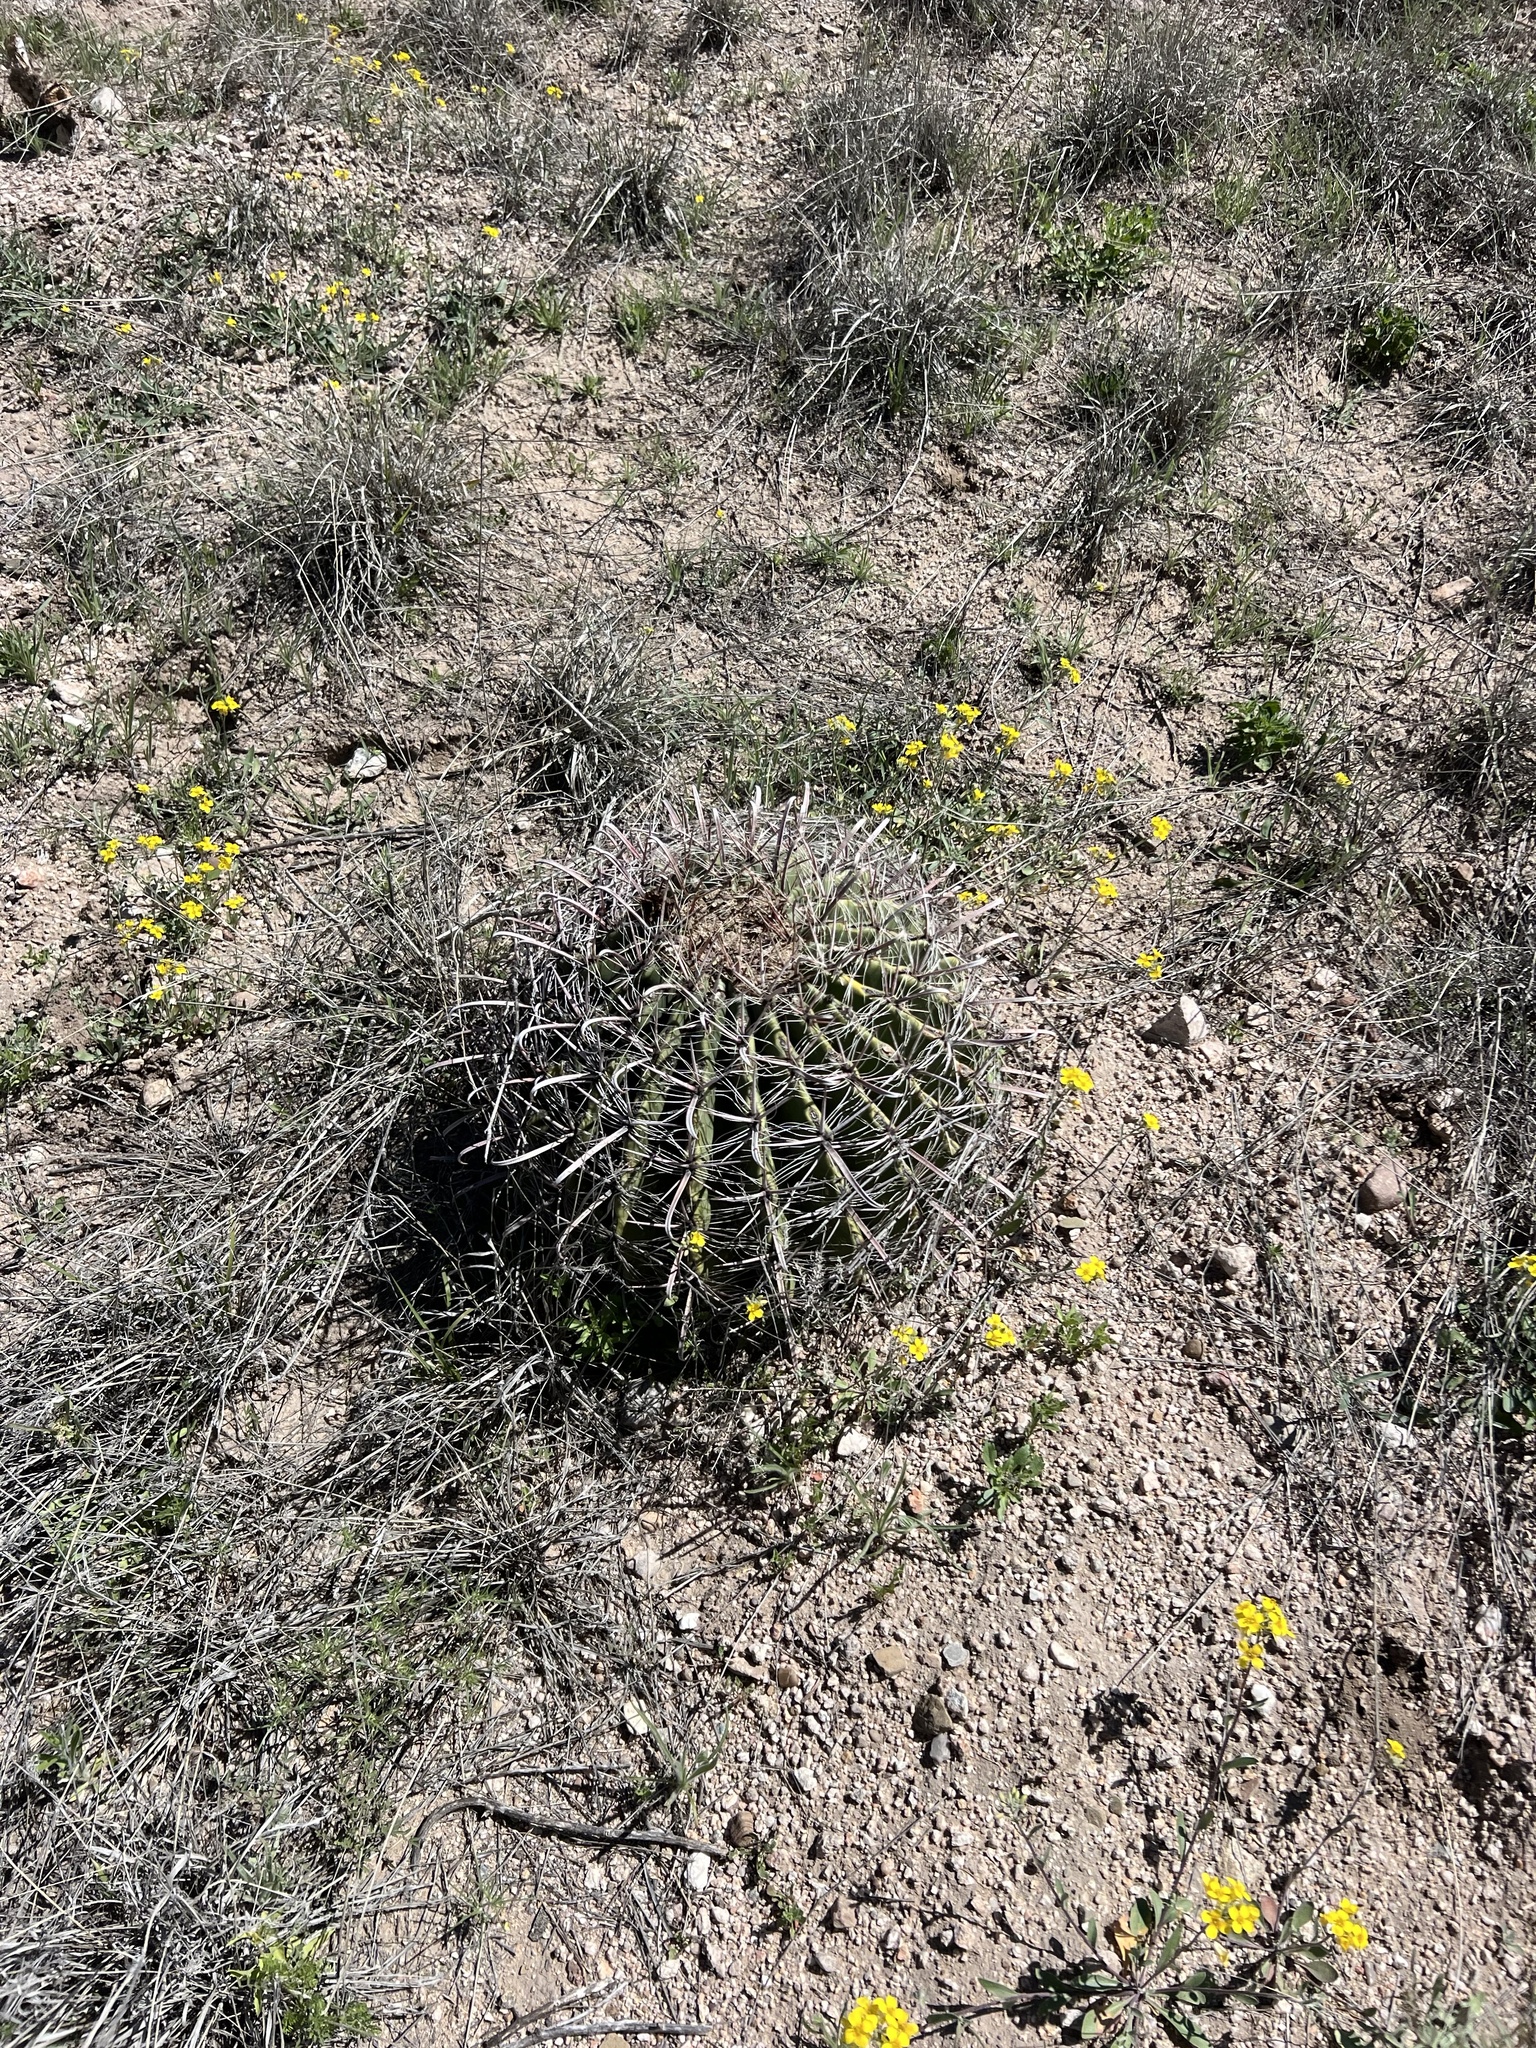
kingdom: Plantae
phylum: Tracheophyta
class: Magnoliopsida
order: Caryophyllales
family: Cactaceae
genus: Ferocactus
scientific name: Ferocactus wislizeni
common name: Candy barrel cactus
